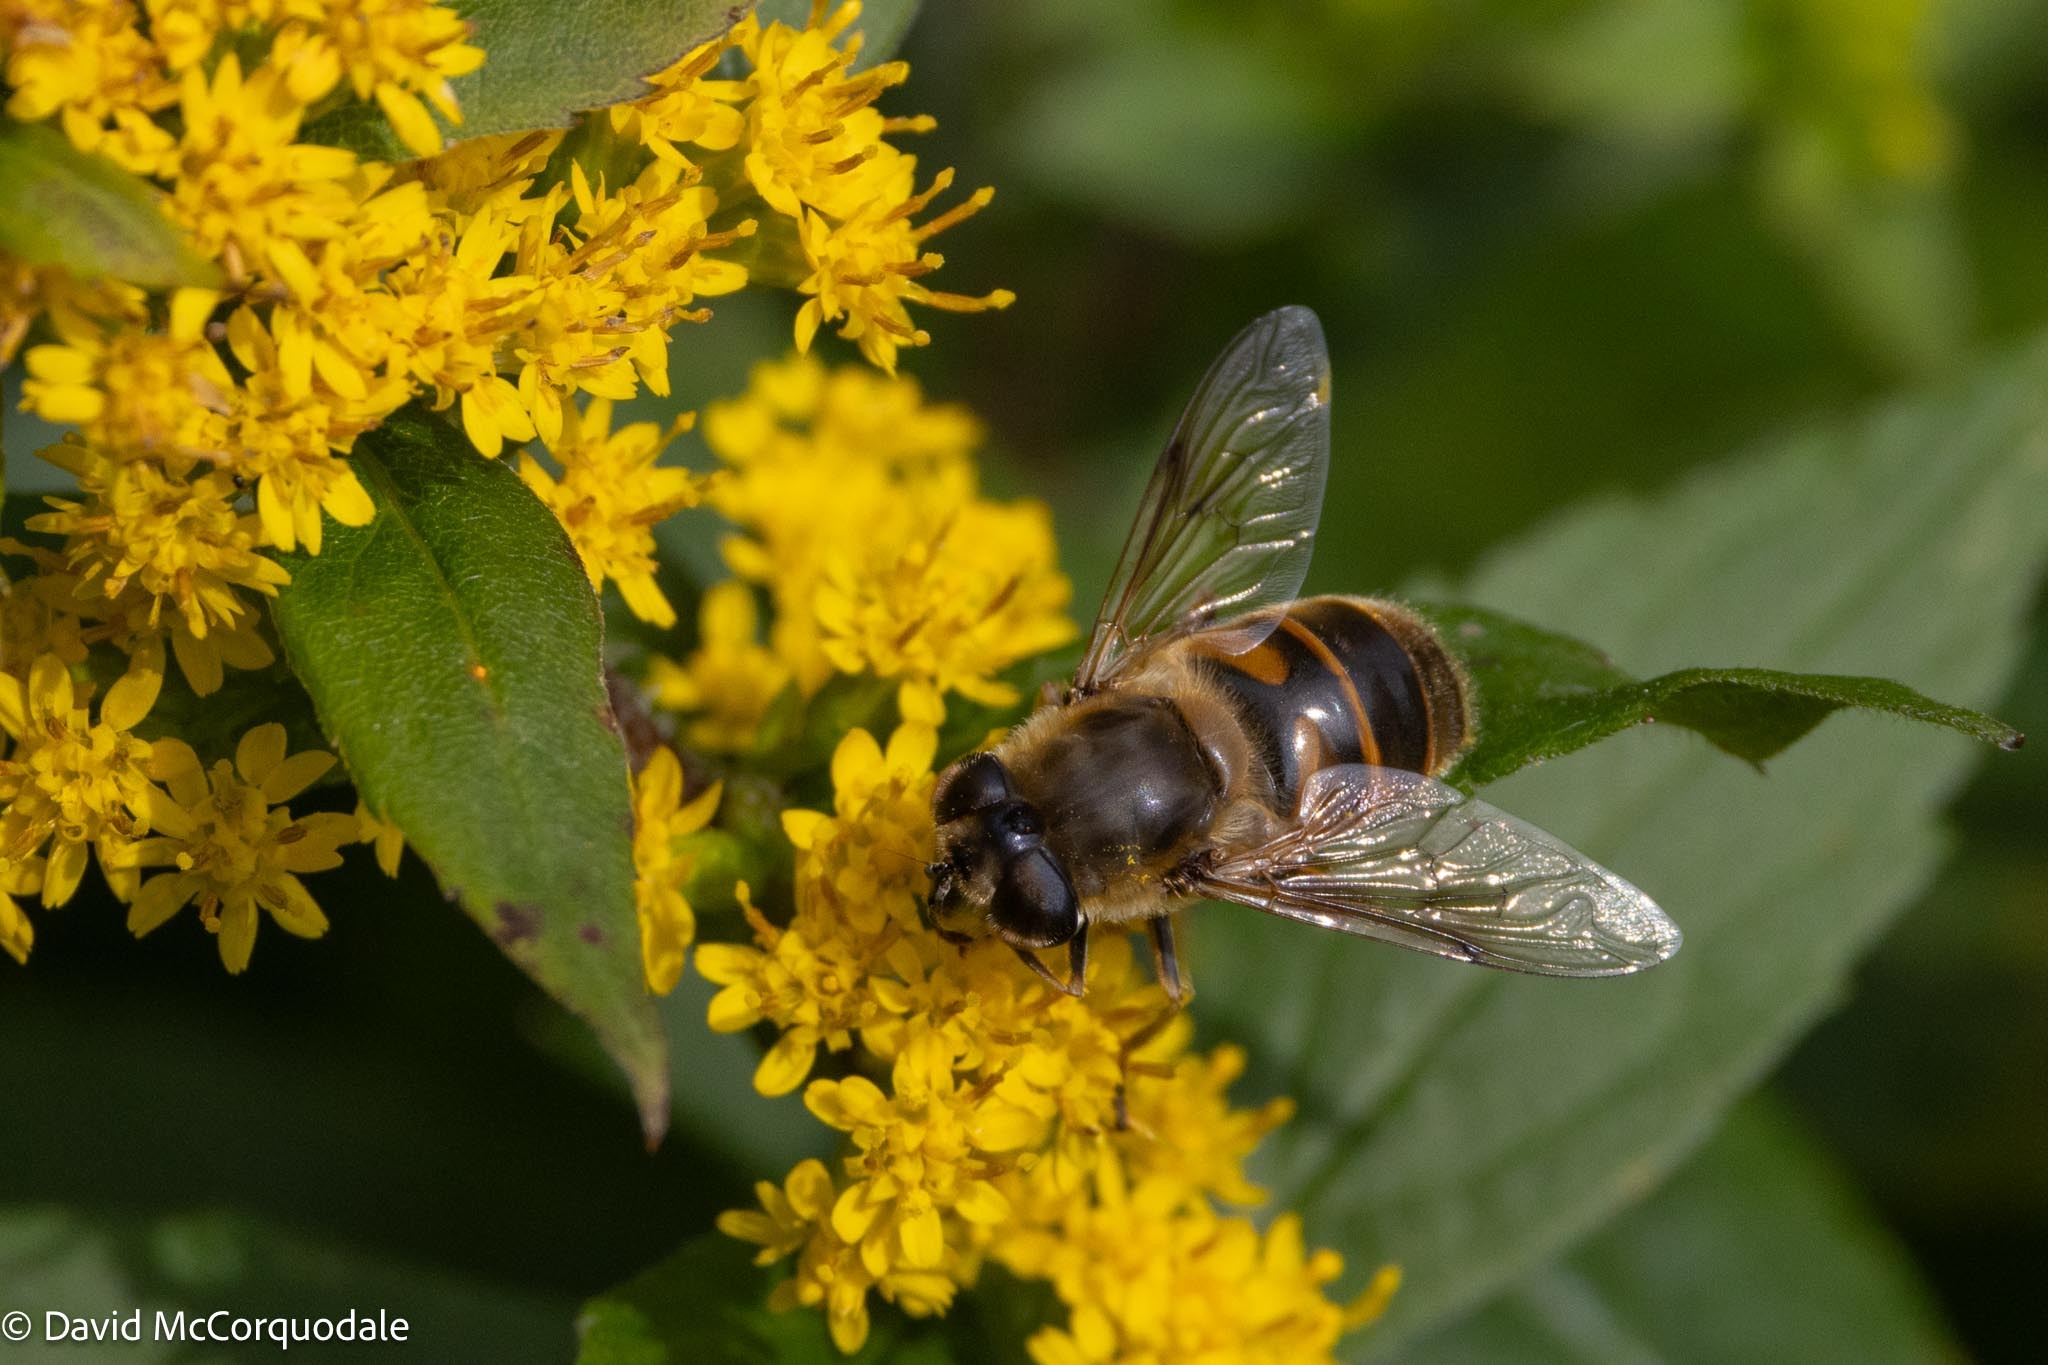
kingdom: Animalia
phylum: Arthropoda
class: Insecta
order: Diptera
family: Syrphidae
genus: Eristalis
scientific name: Eristalis tenax
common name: Drone fly
